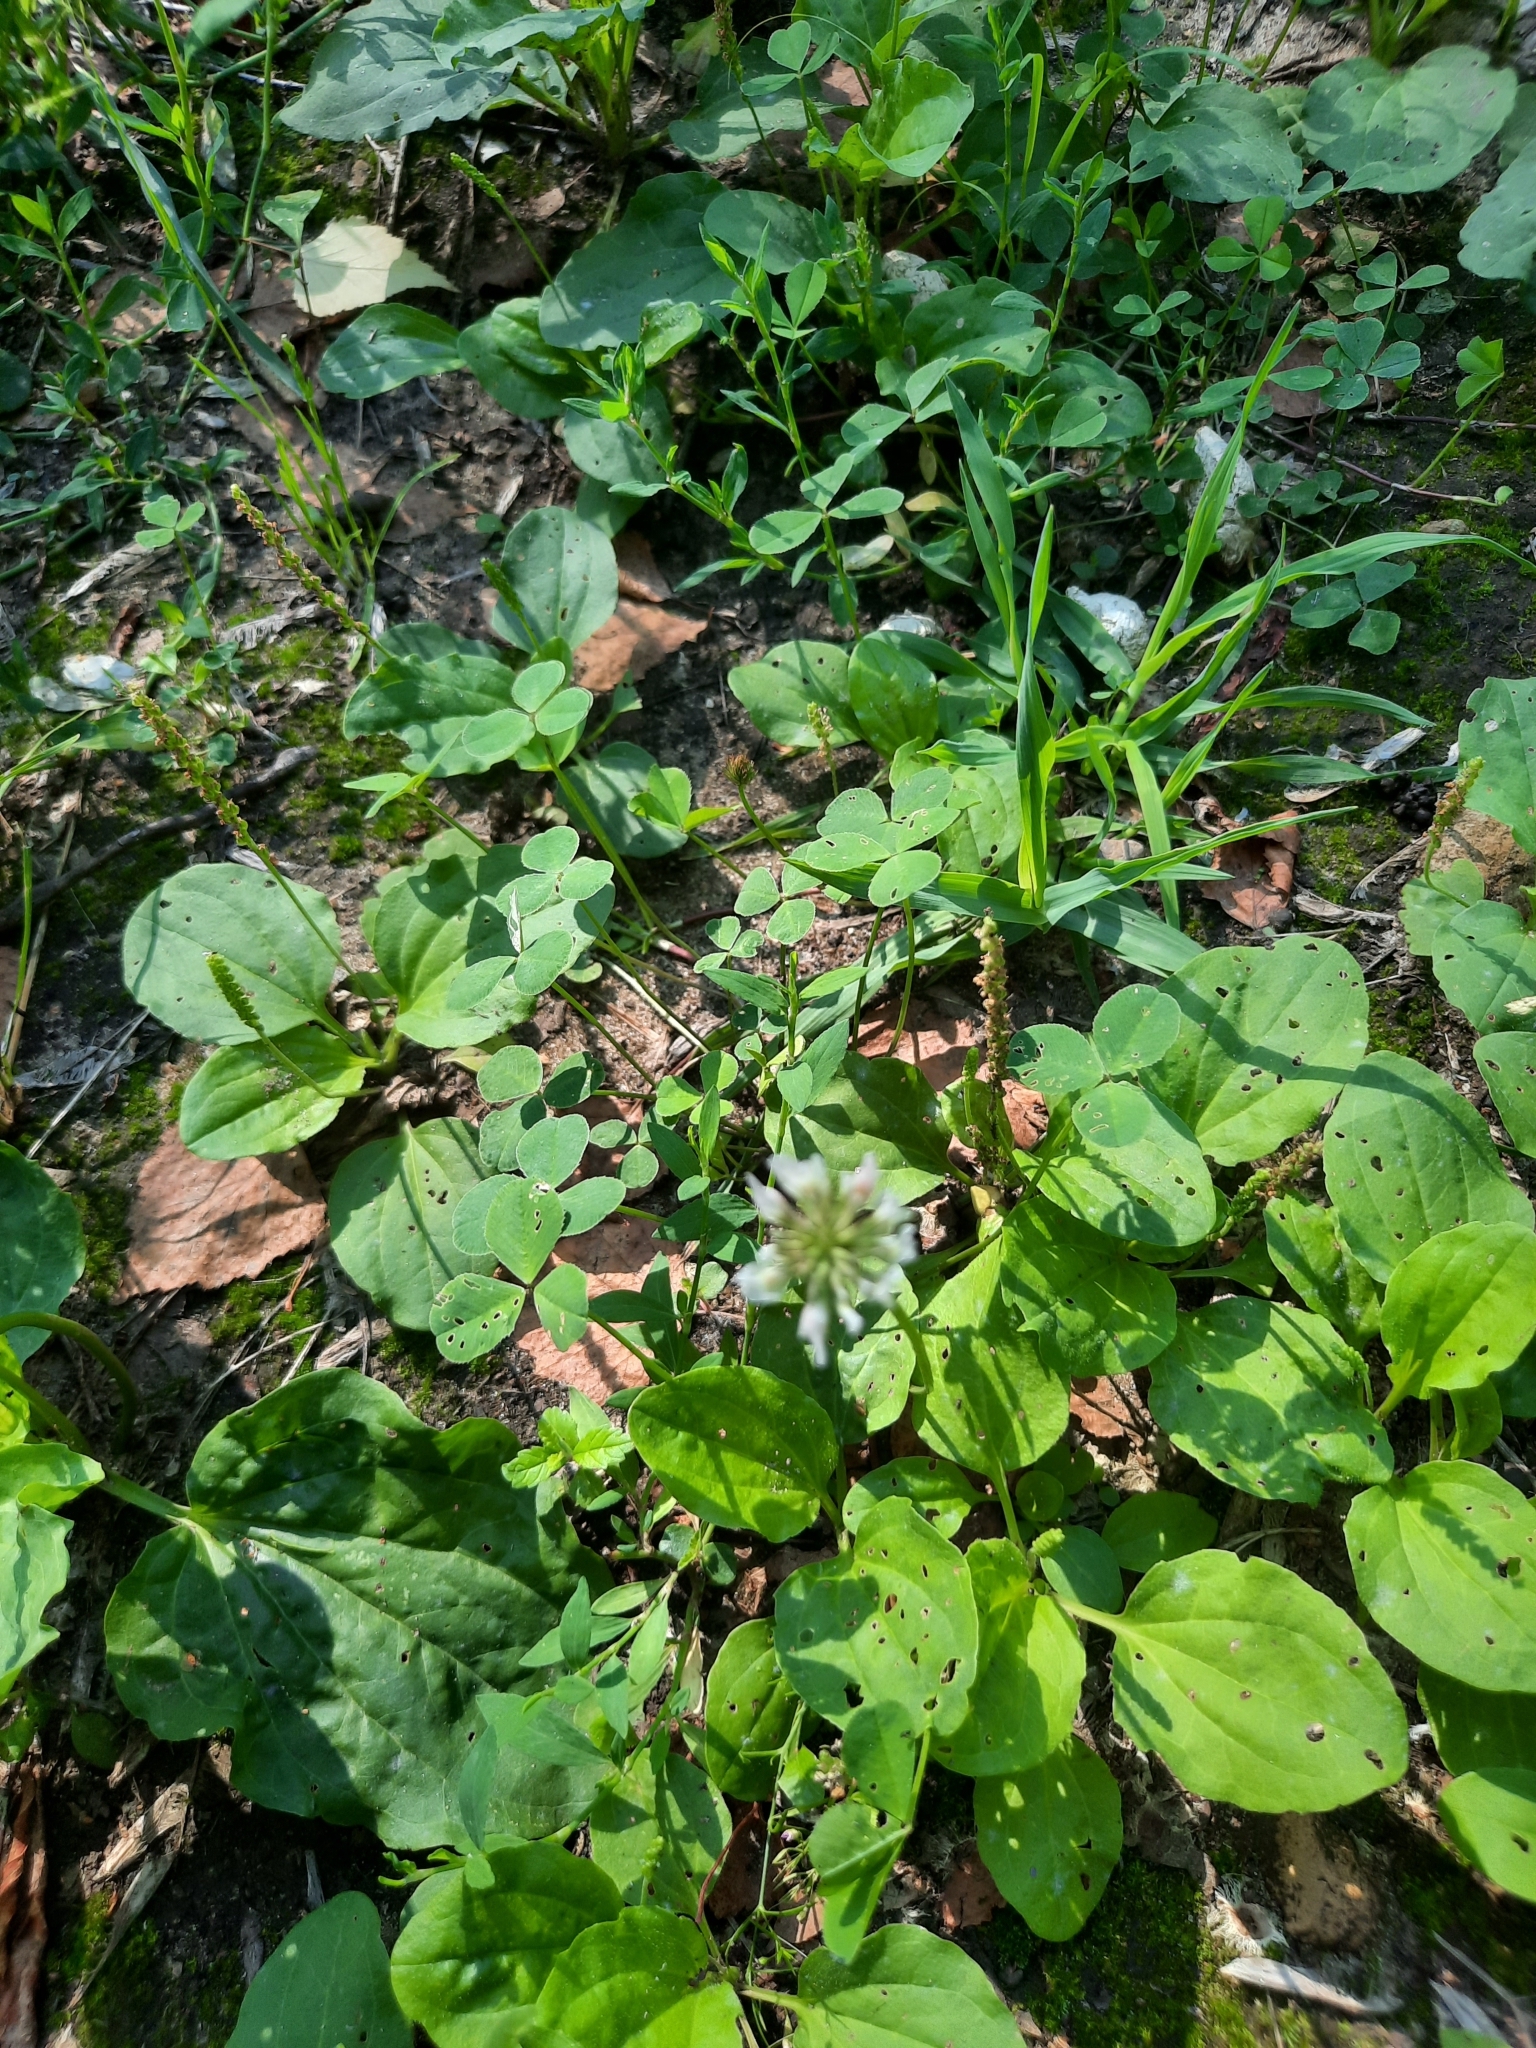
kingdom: Plantae
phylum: Tracheophyta
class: Magnoliopsida
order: Fabales
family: Fabaceae
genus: Trifolium
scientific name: Trifolium repens
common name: White clover
